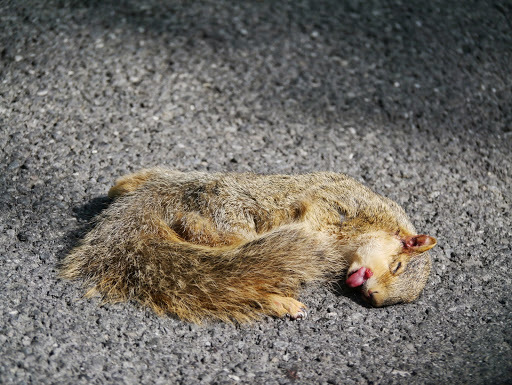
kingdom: Animalia
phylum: Chordata
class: Mammalia
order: Rodentia
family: Sciuridae
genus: Sciurus
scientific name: Sciurus niger
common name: Fox squirrel
